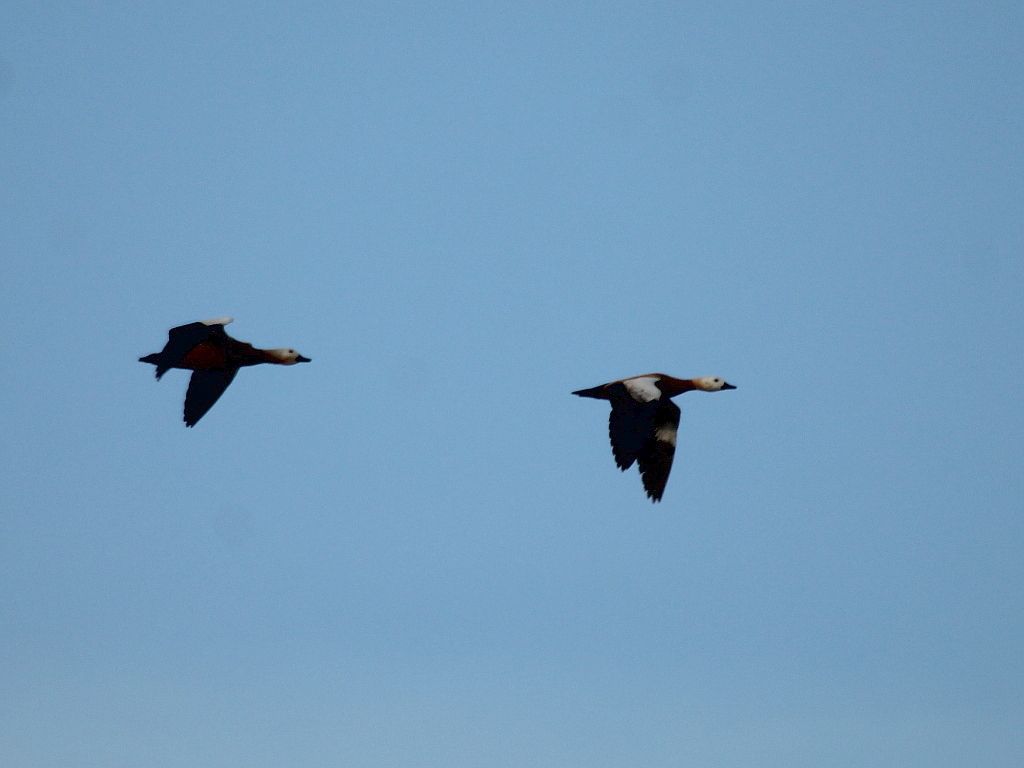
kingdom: Animalia
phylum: Chordata
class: Aves
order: Anseriformes
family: Anatidae
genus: Tadorna
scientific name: Tadorna ferruginea
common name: Ruddy shelduck
